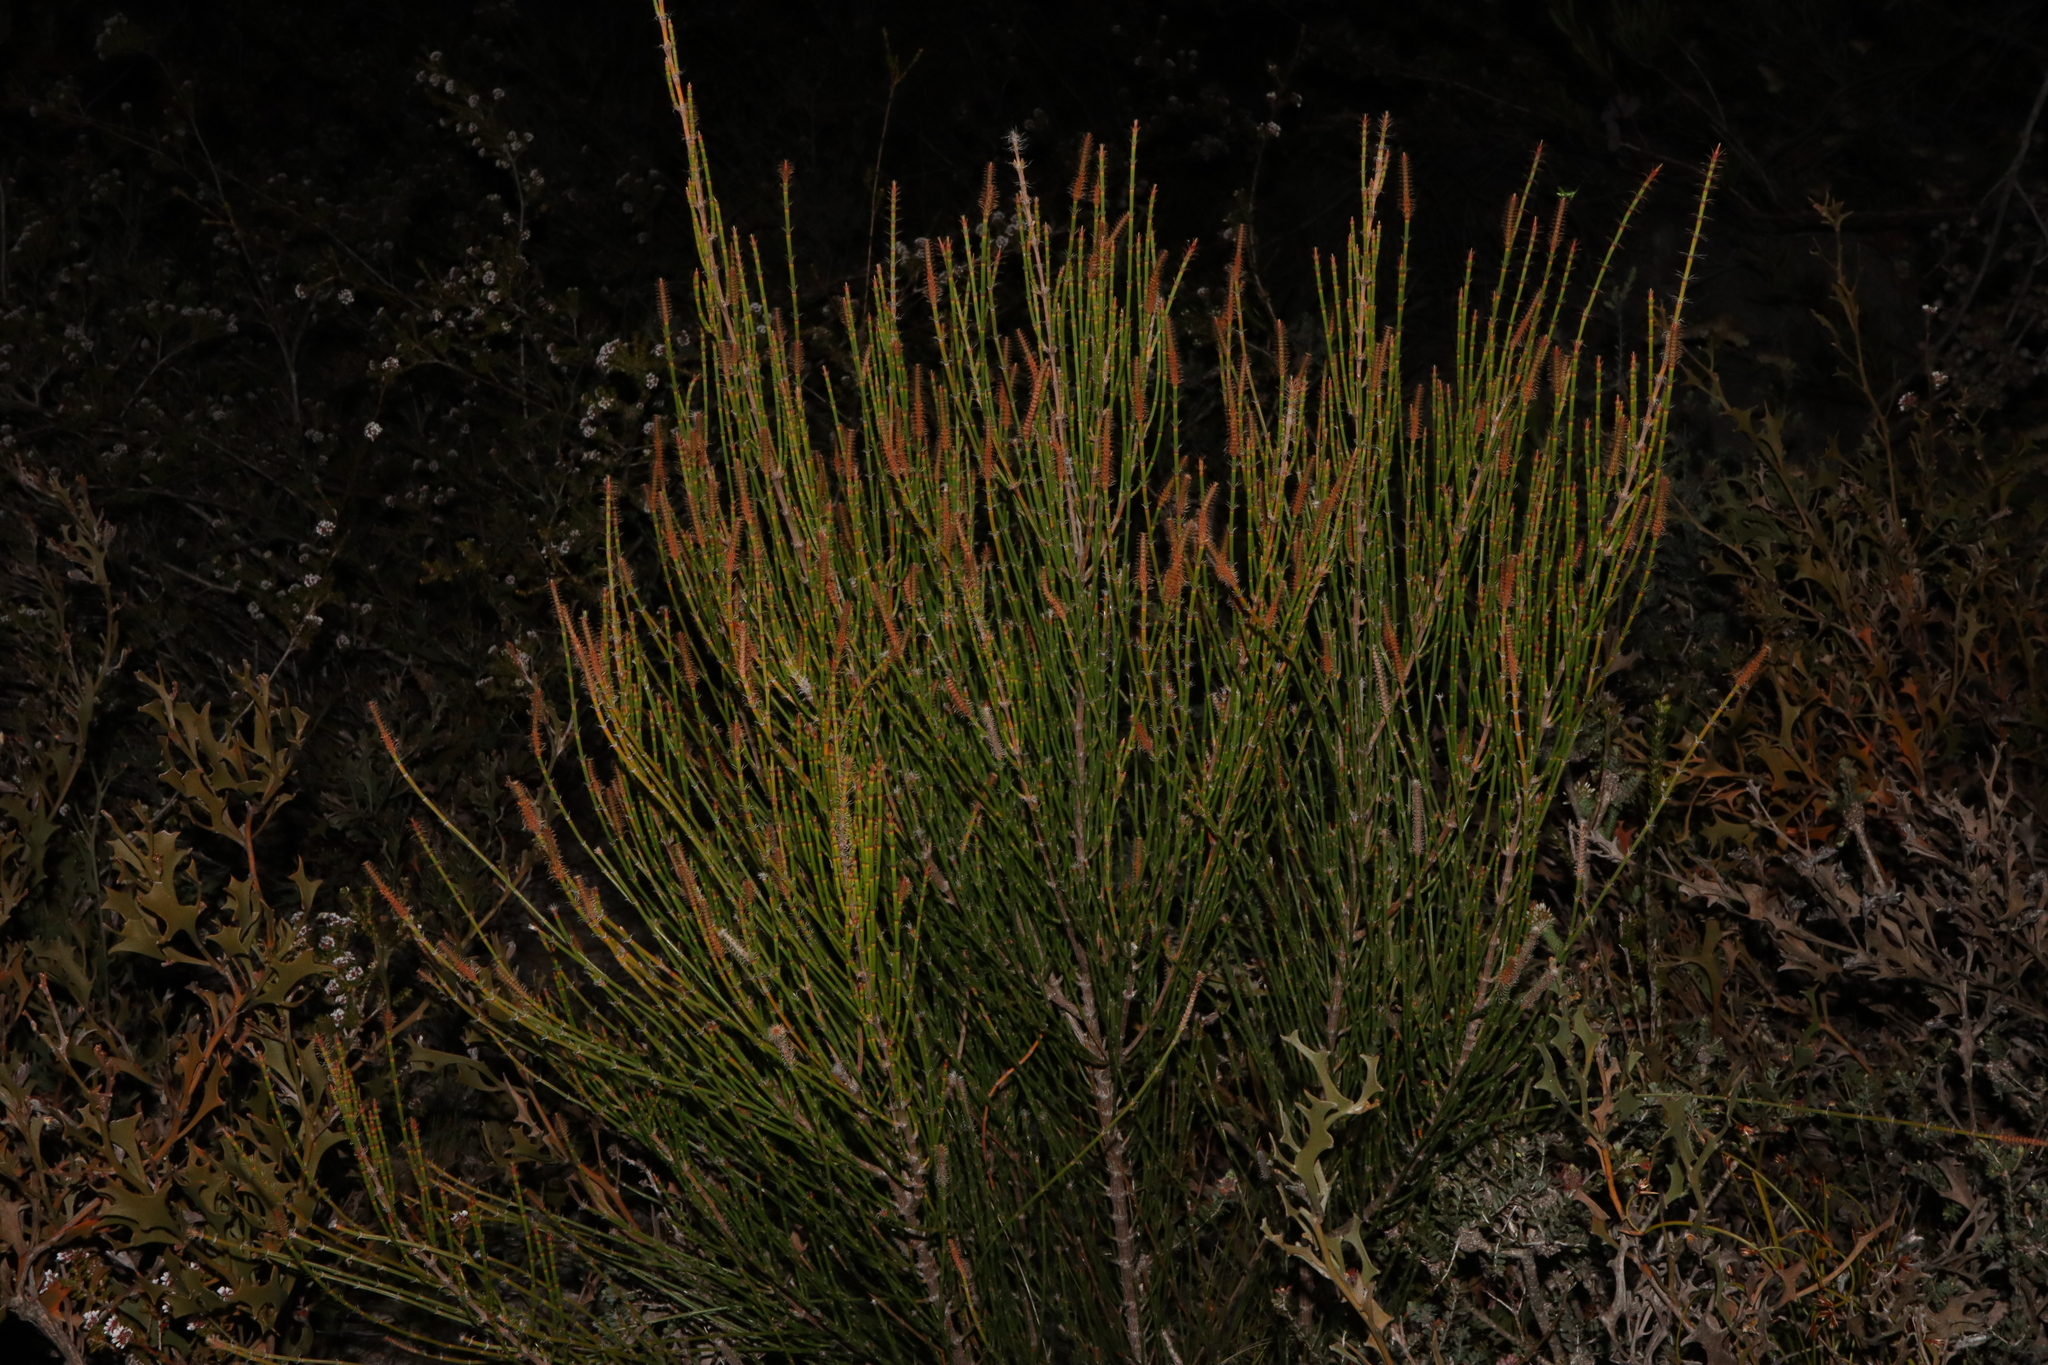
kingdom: Plantae
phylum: Tracheophyta
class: Magnoliopsida
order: Fagales
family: Casuarinaceae
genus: Allocasuarina
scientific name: Allocasuarina trichodon
